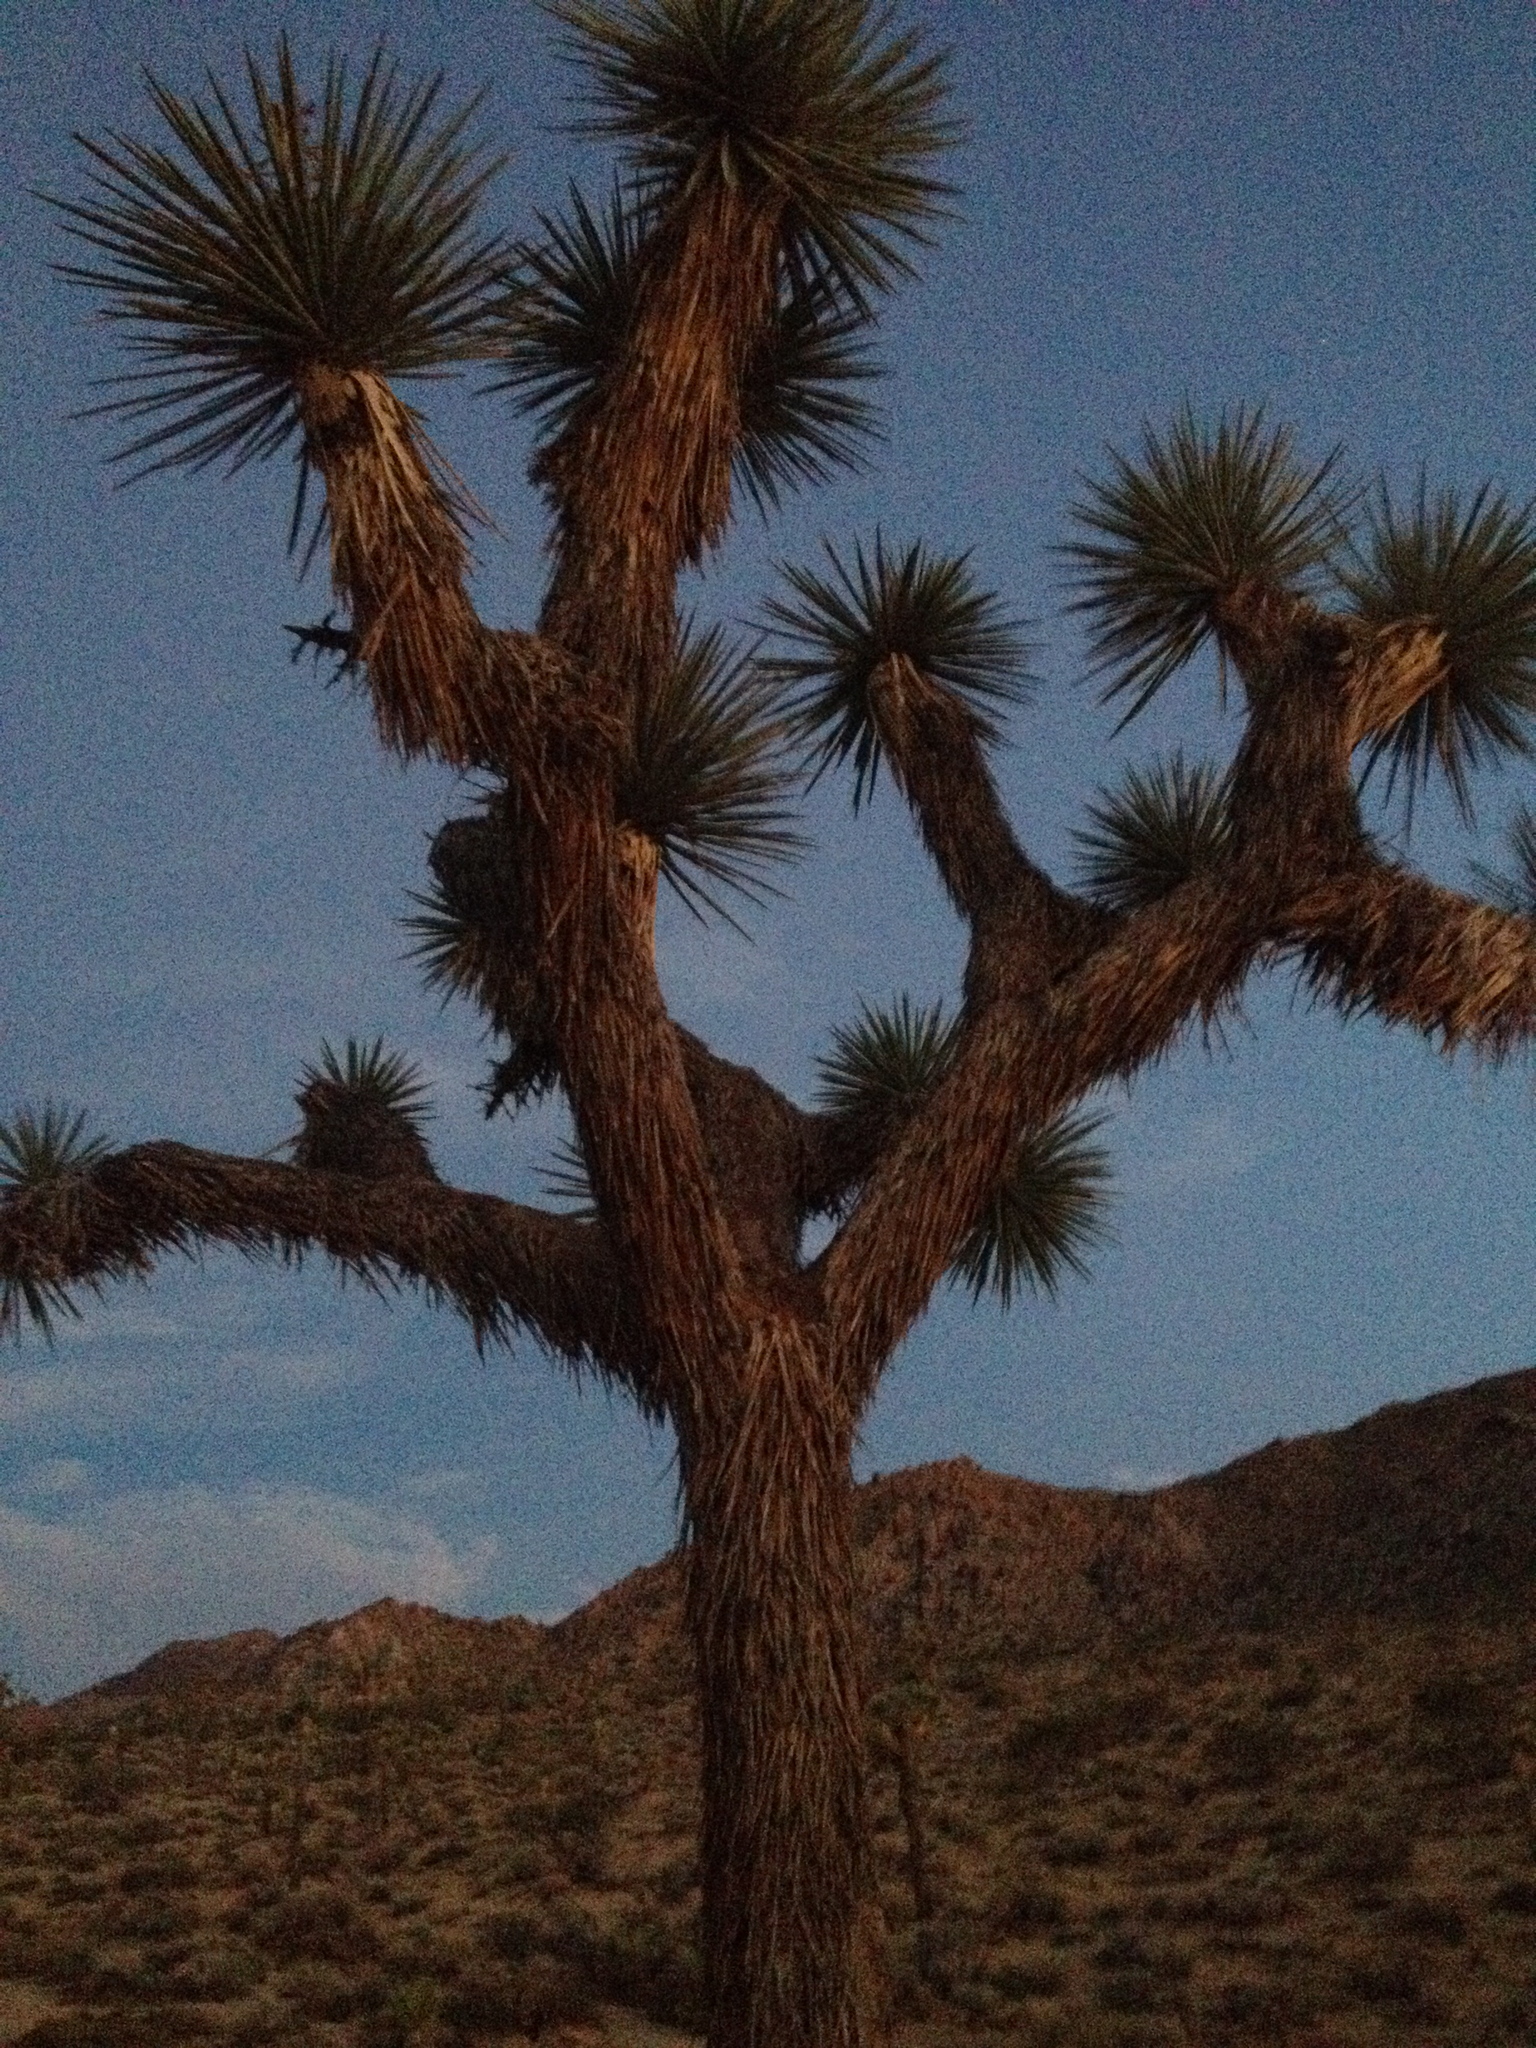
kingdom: Plantae
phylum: Tracheophyta
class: Liliopsida
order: Asparagales
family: Asparagaceae
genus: Yucca
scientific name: Yucca brevifolia
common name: Joshua tree
